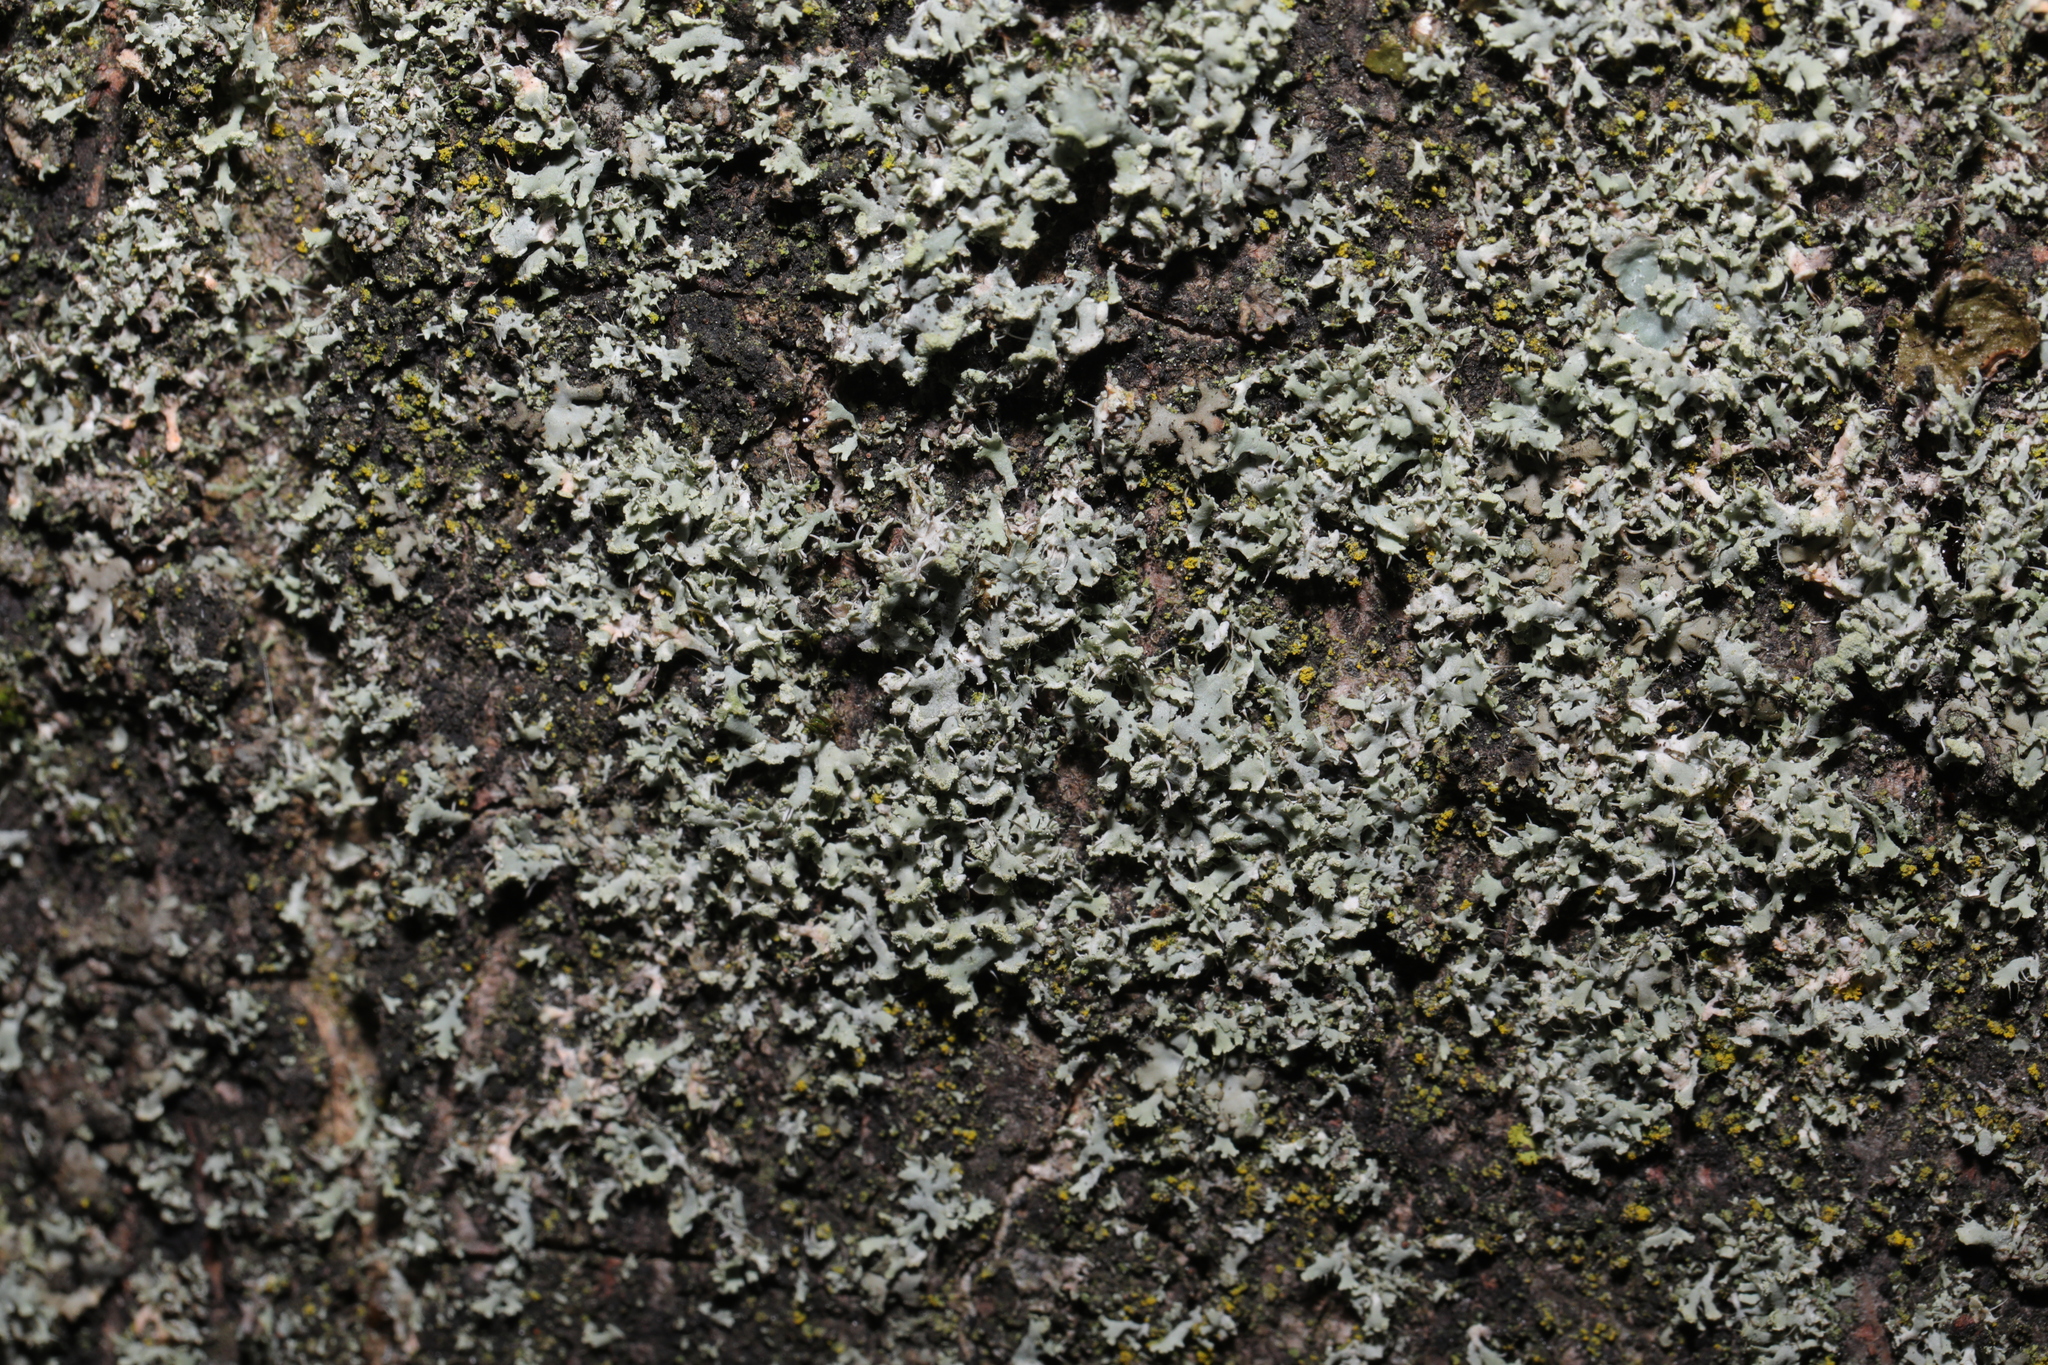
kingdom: Fungi
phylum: Ascomycota
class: Lecanoromycetes
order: Caliciales
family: Physciaceae
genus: Physcia
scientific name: Physcia tenella
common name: Fringed rosette lichen
